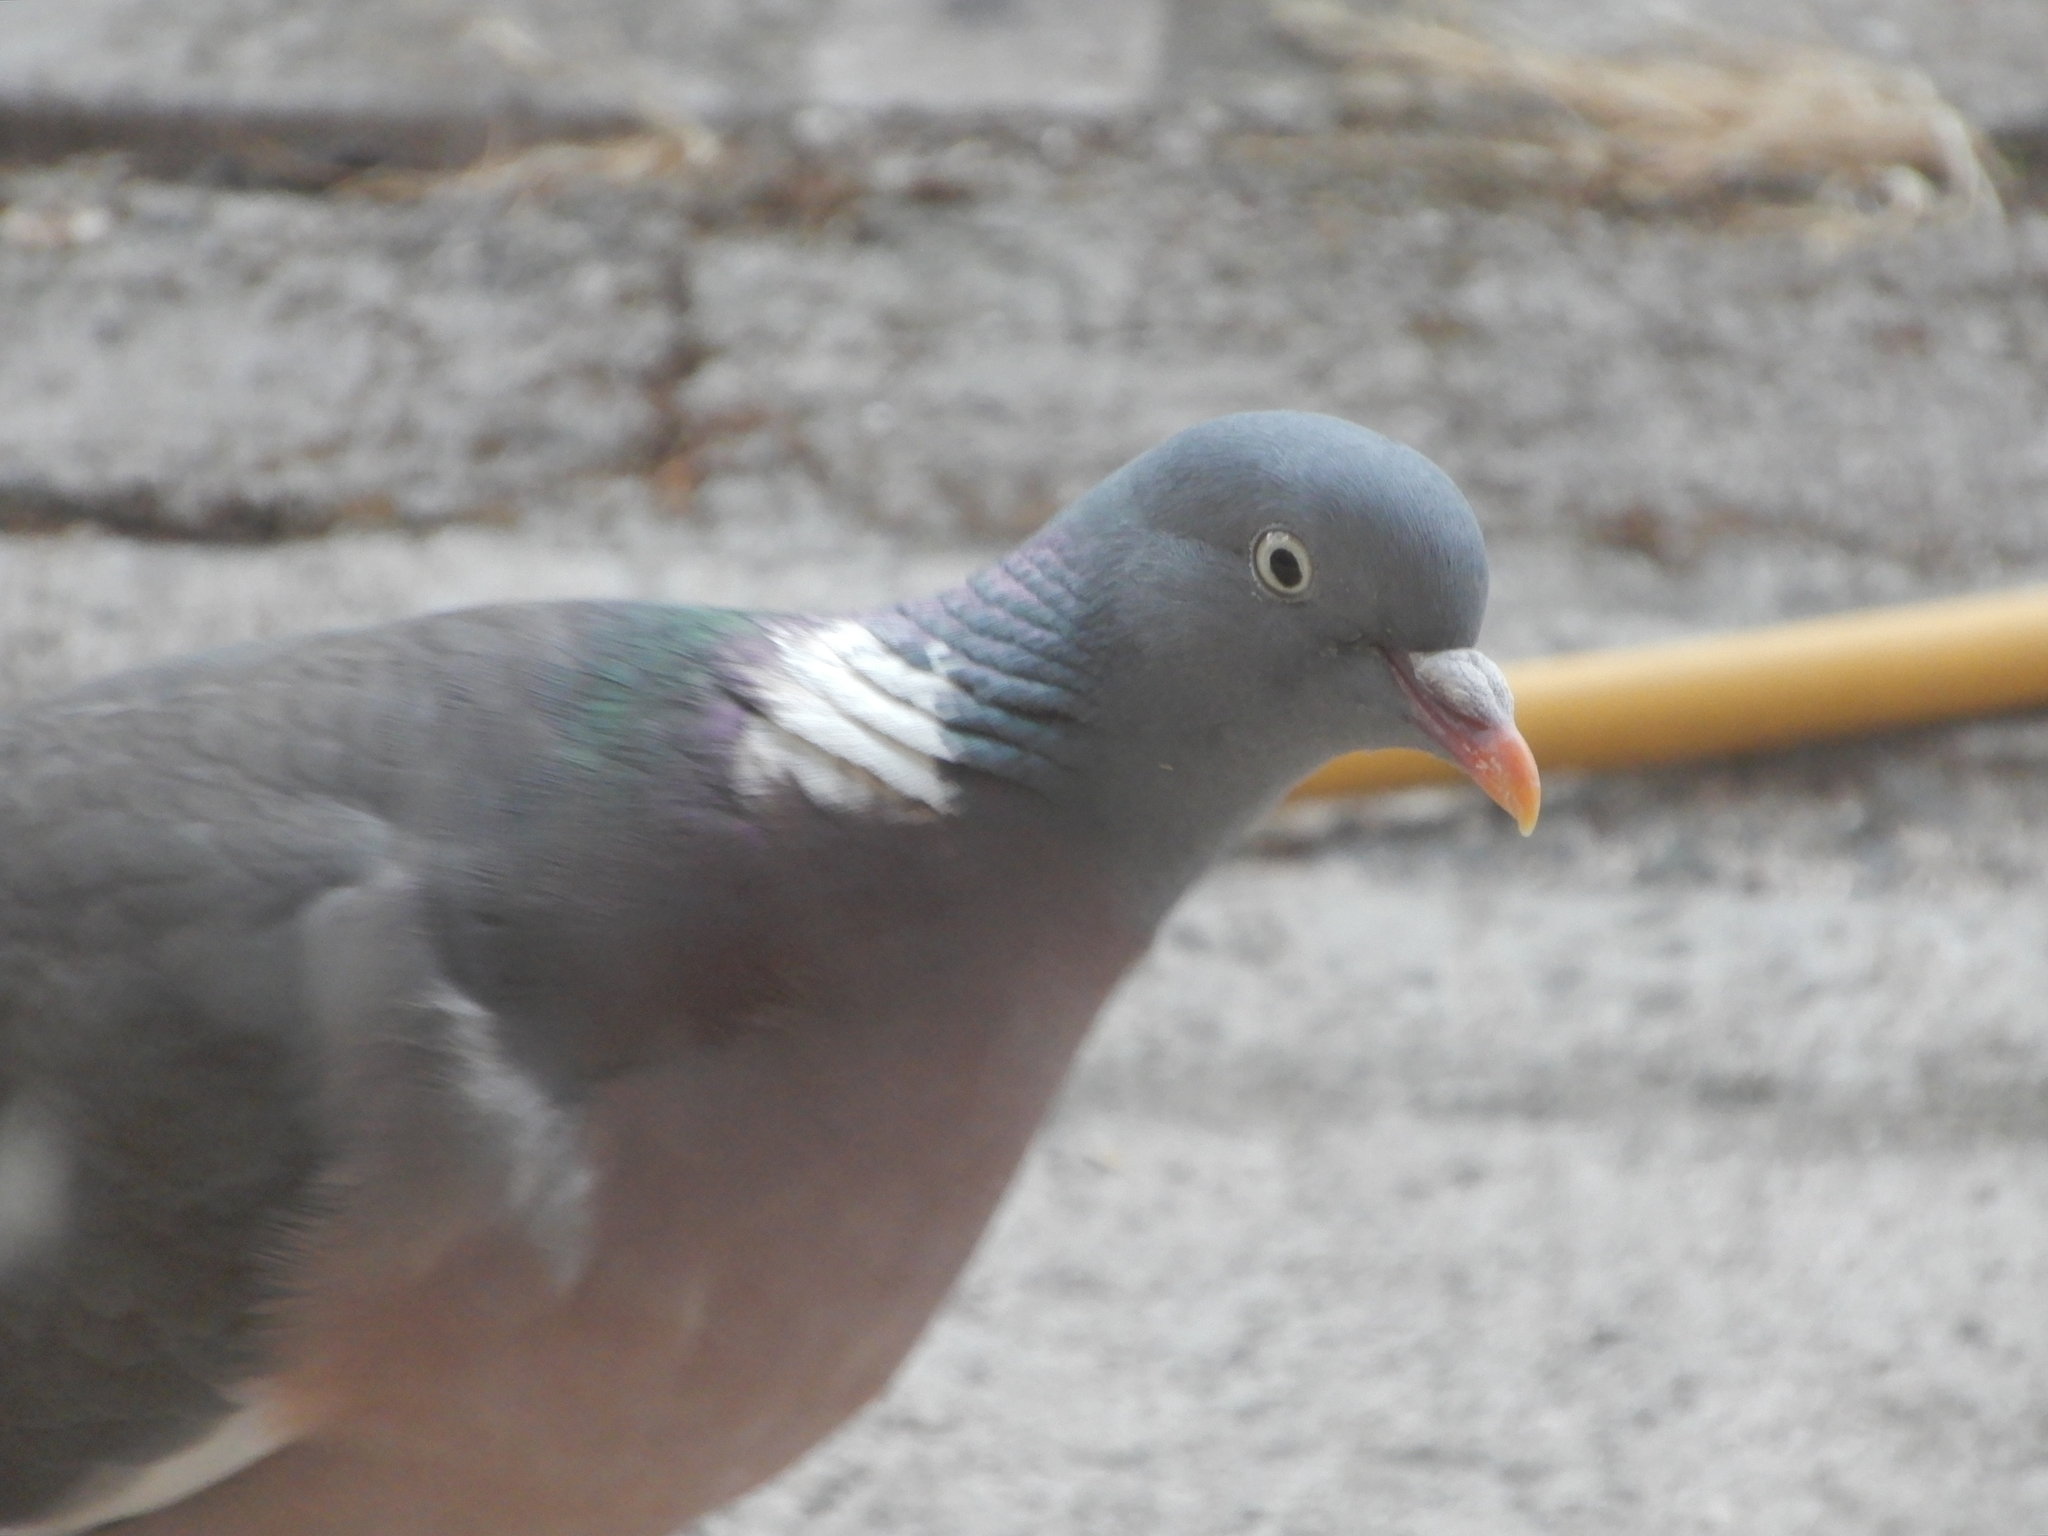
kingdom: Animalia
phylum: Chordata
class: Aves
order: Columbiformes
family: Columbidae
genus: Columba
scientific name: Columba palumbus
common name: Common wood pigeon
